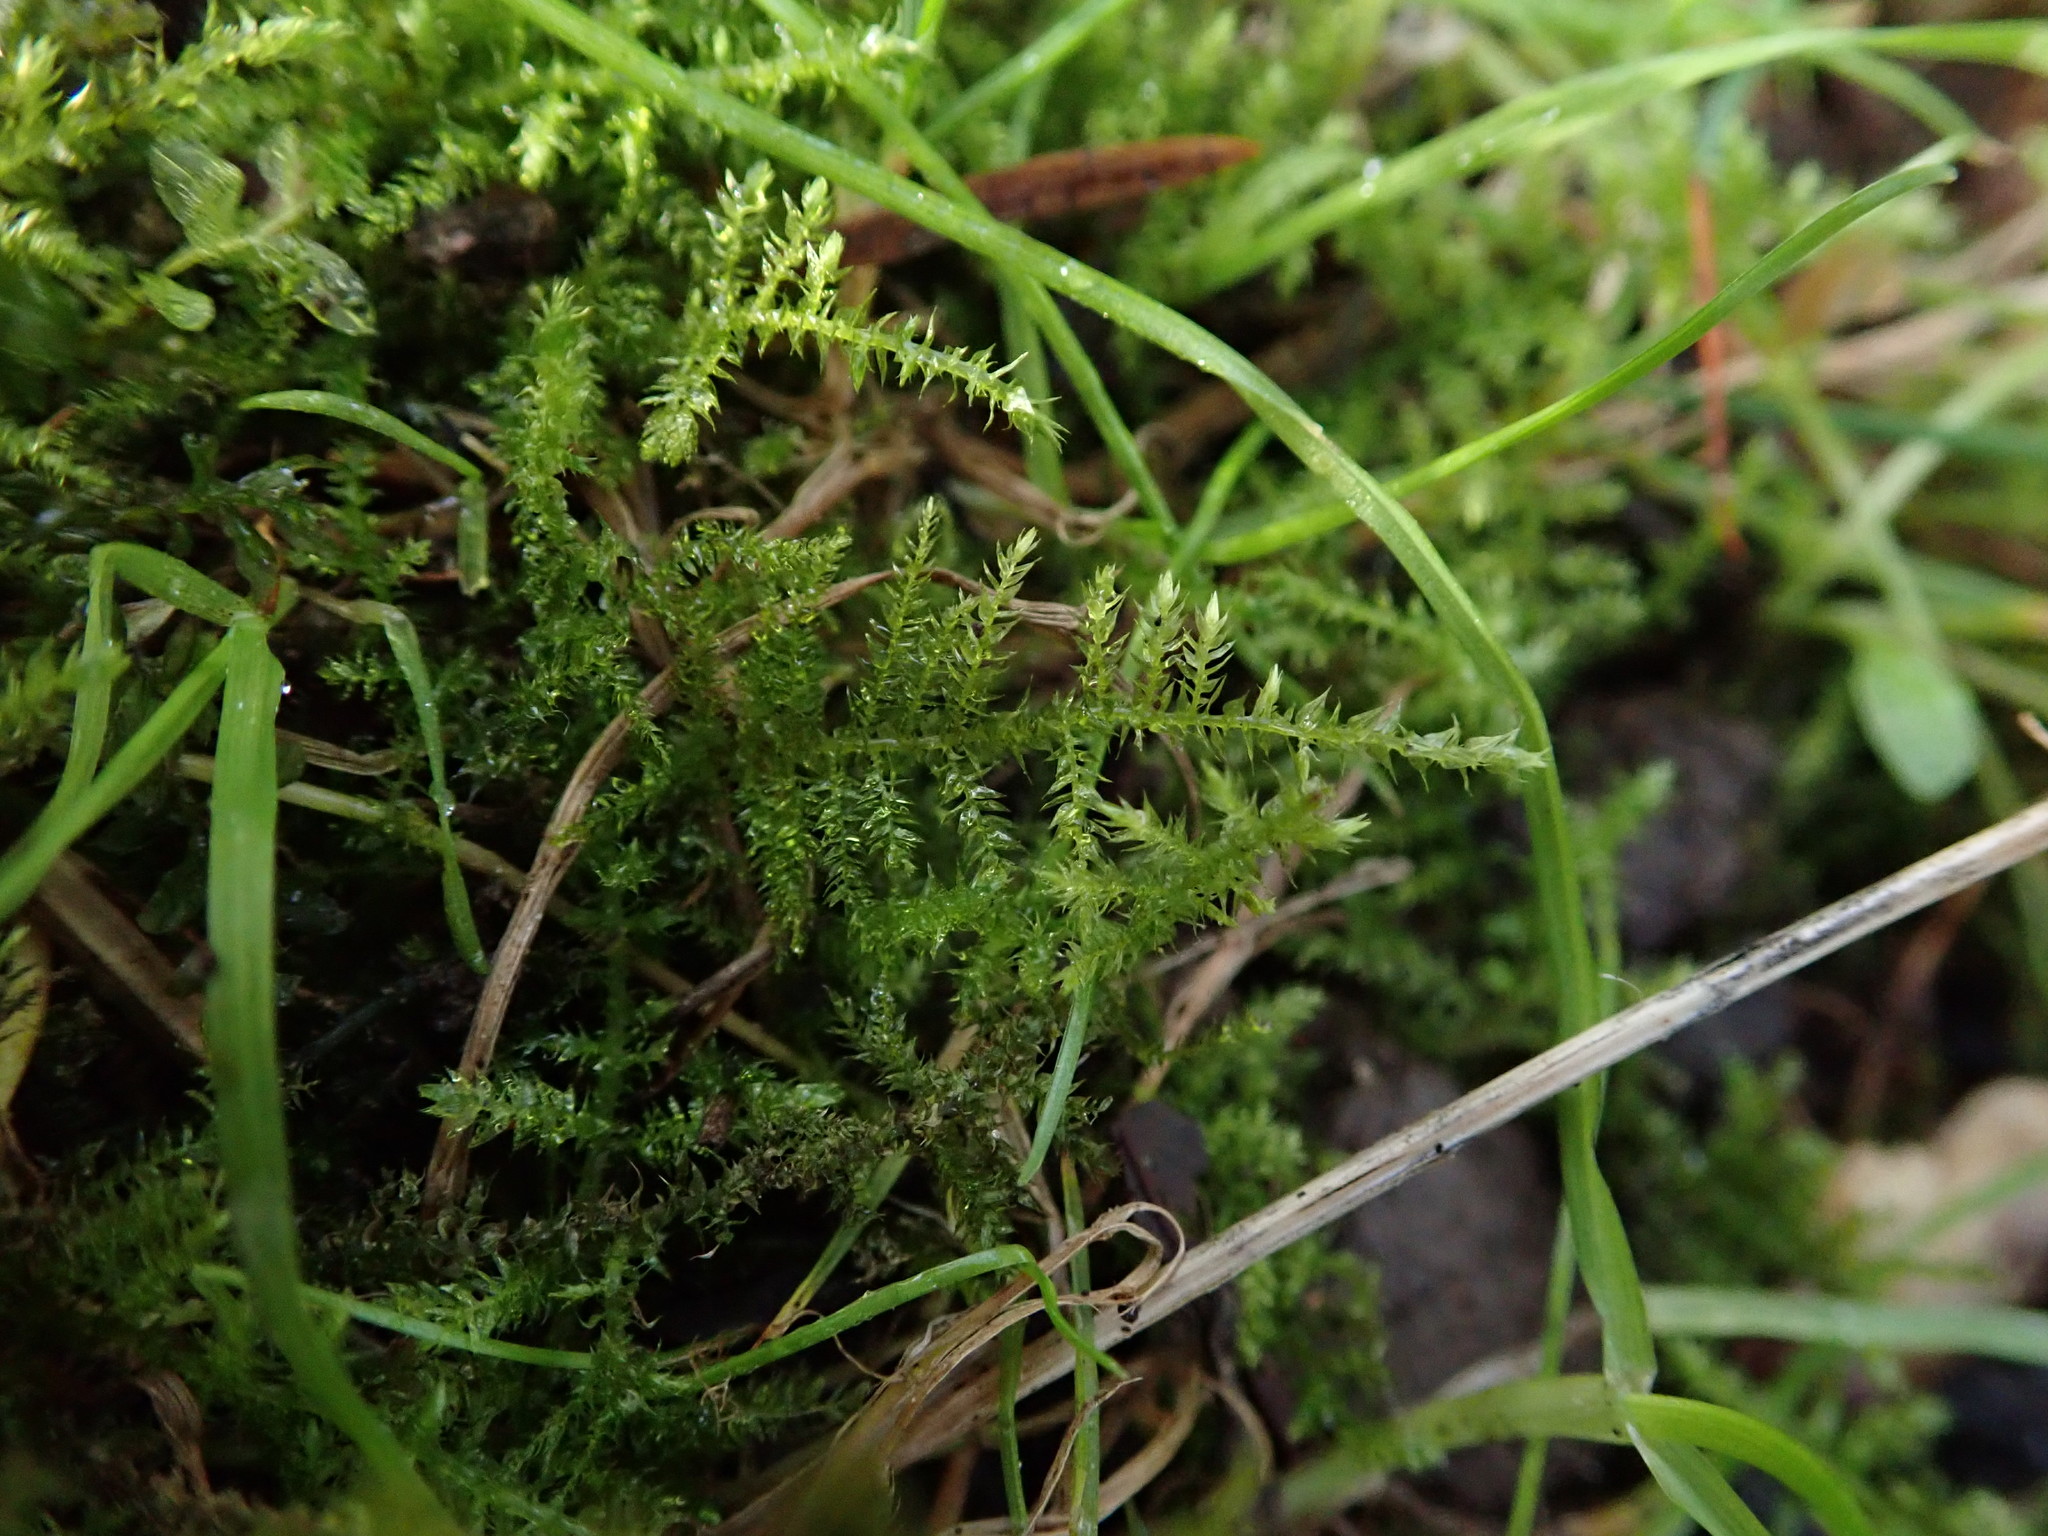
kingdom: Plantae
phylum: Bryophyta
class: Bryopsida
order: Hypnales
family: Brachytheciaceae
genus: Kindbergia
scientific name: Kindbergia praelonga
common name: Slender beaked moss
